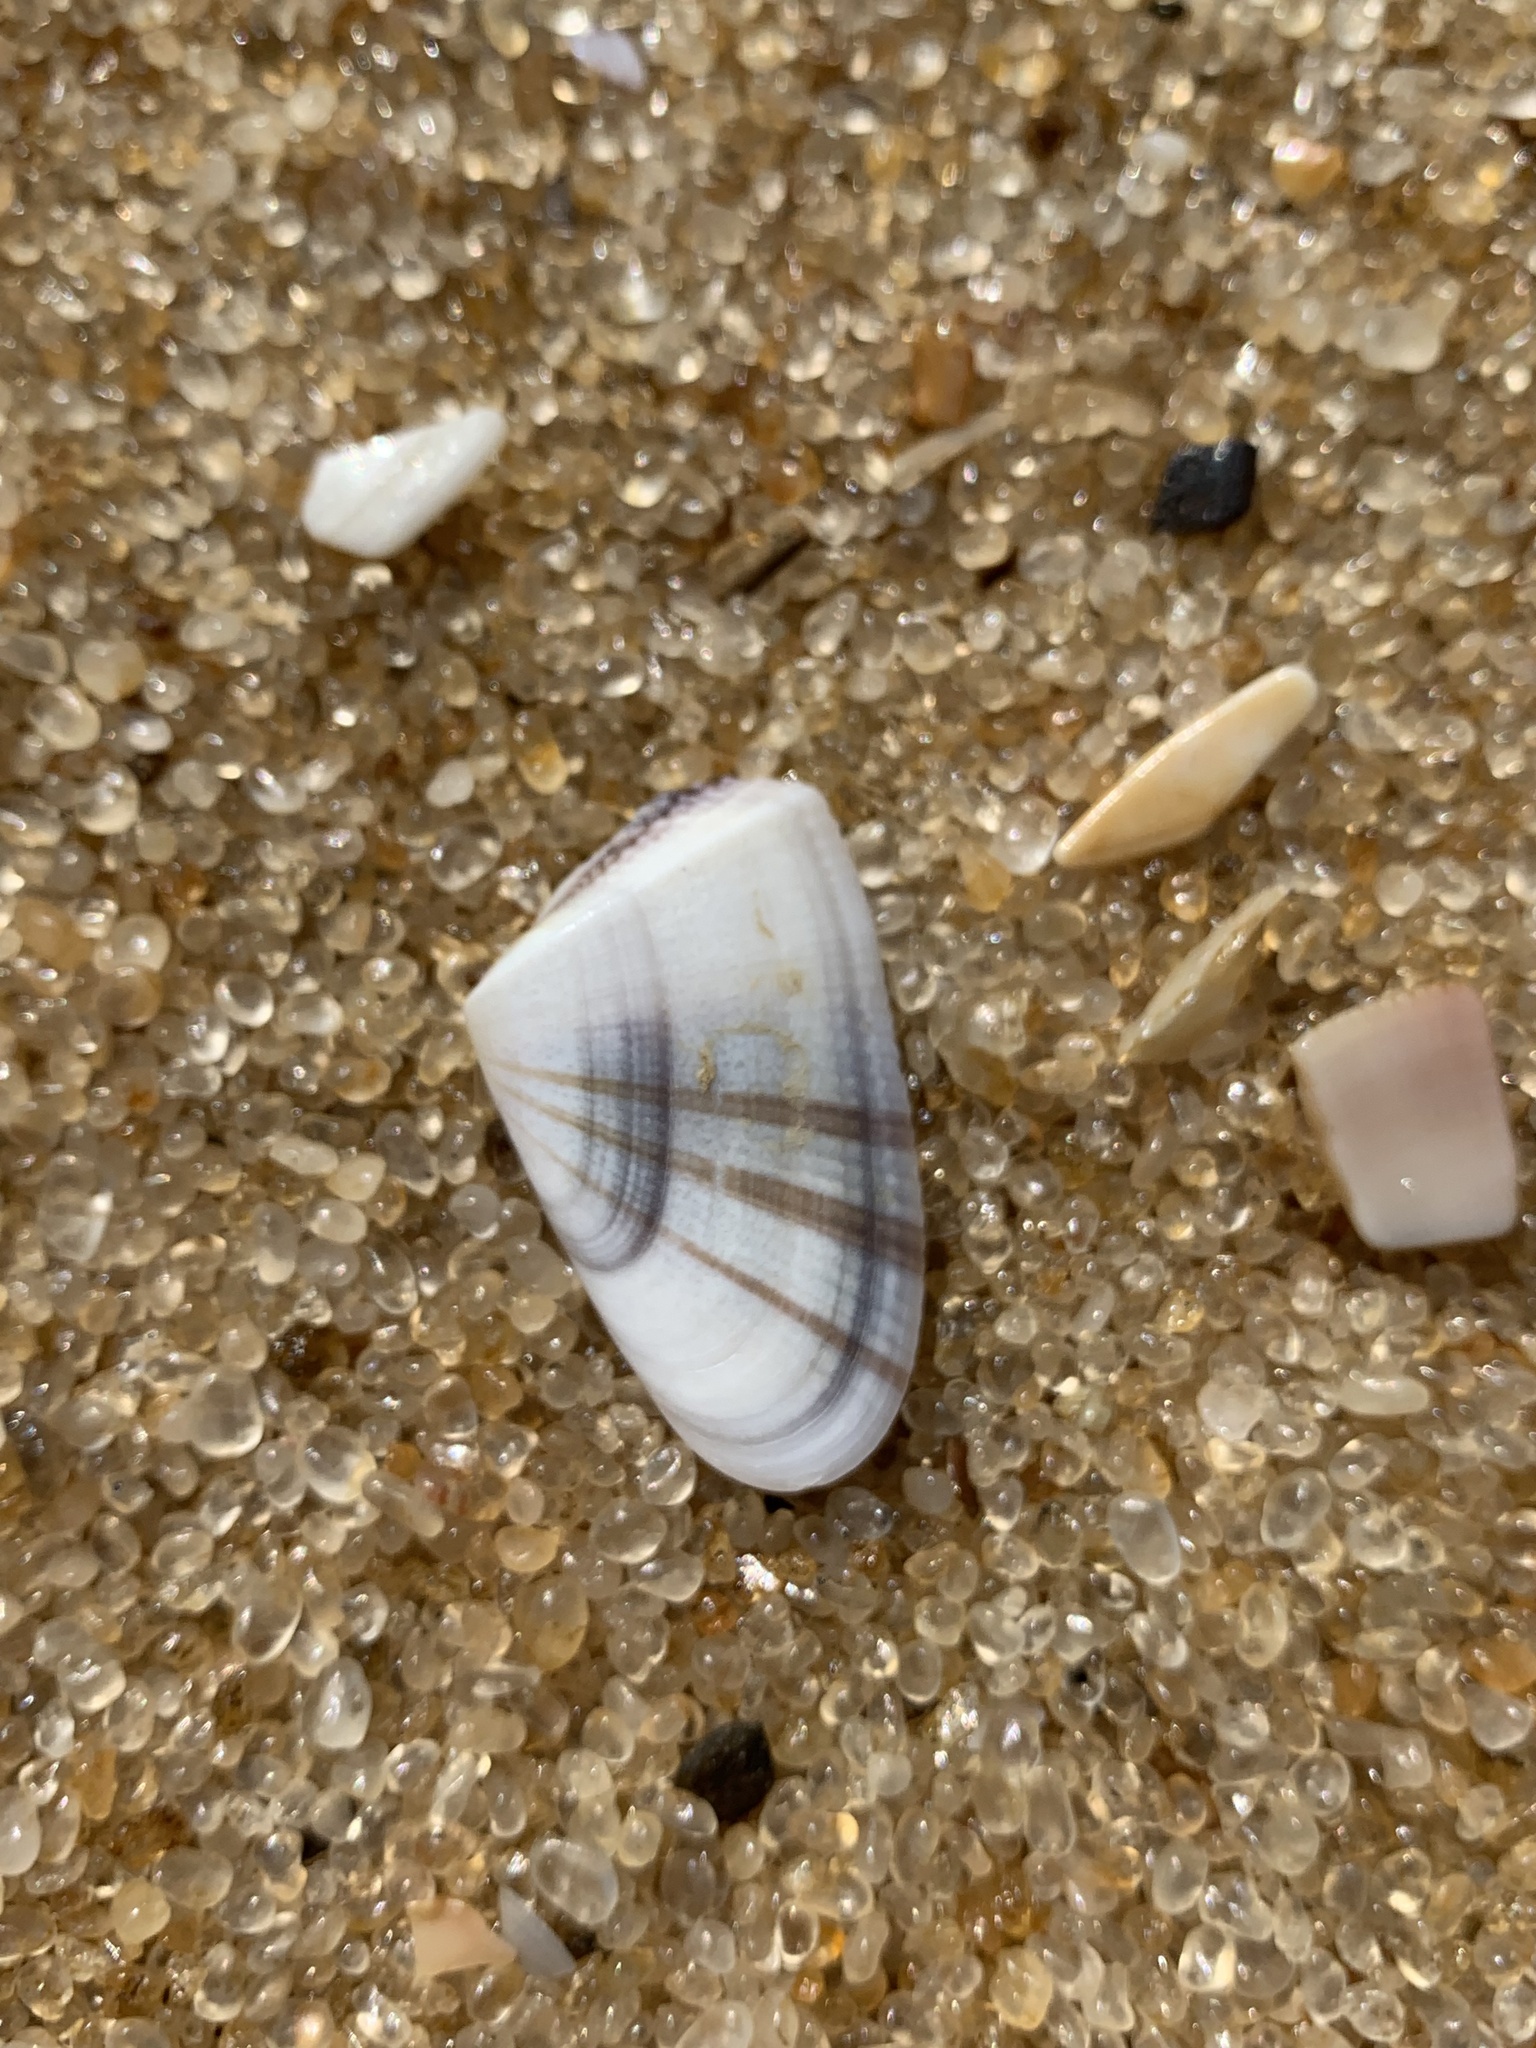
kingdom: Animalia
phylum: Mollusca
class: Bivalvia
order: Cardiida
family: Donacidae
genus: Donax
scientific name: Donax hanleyanus
